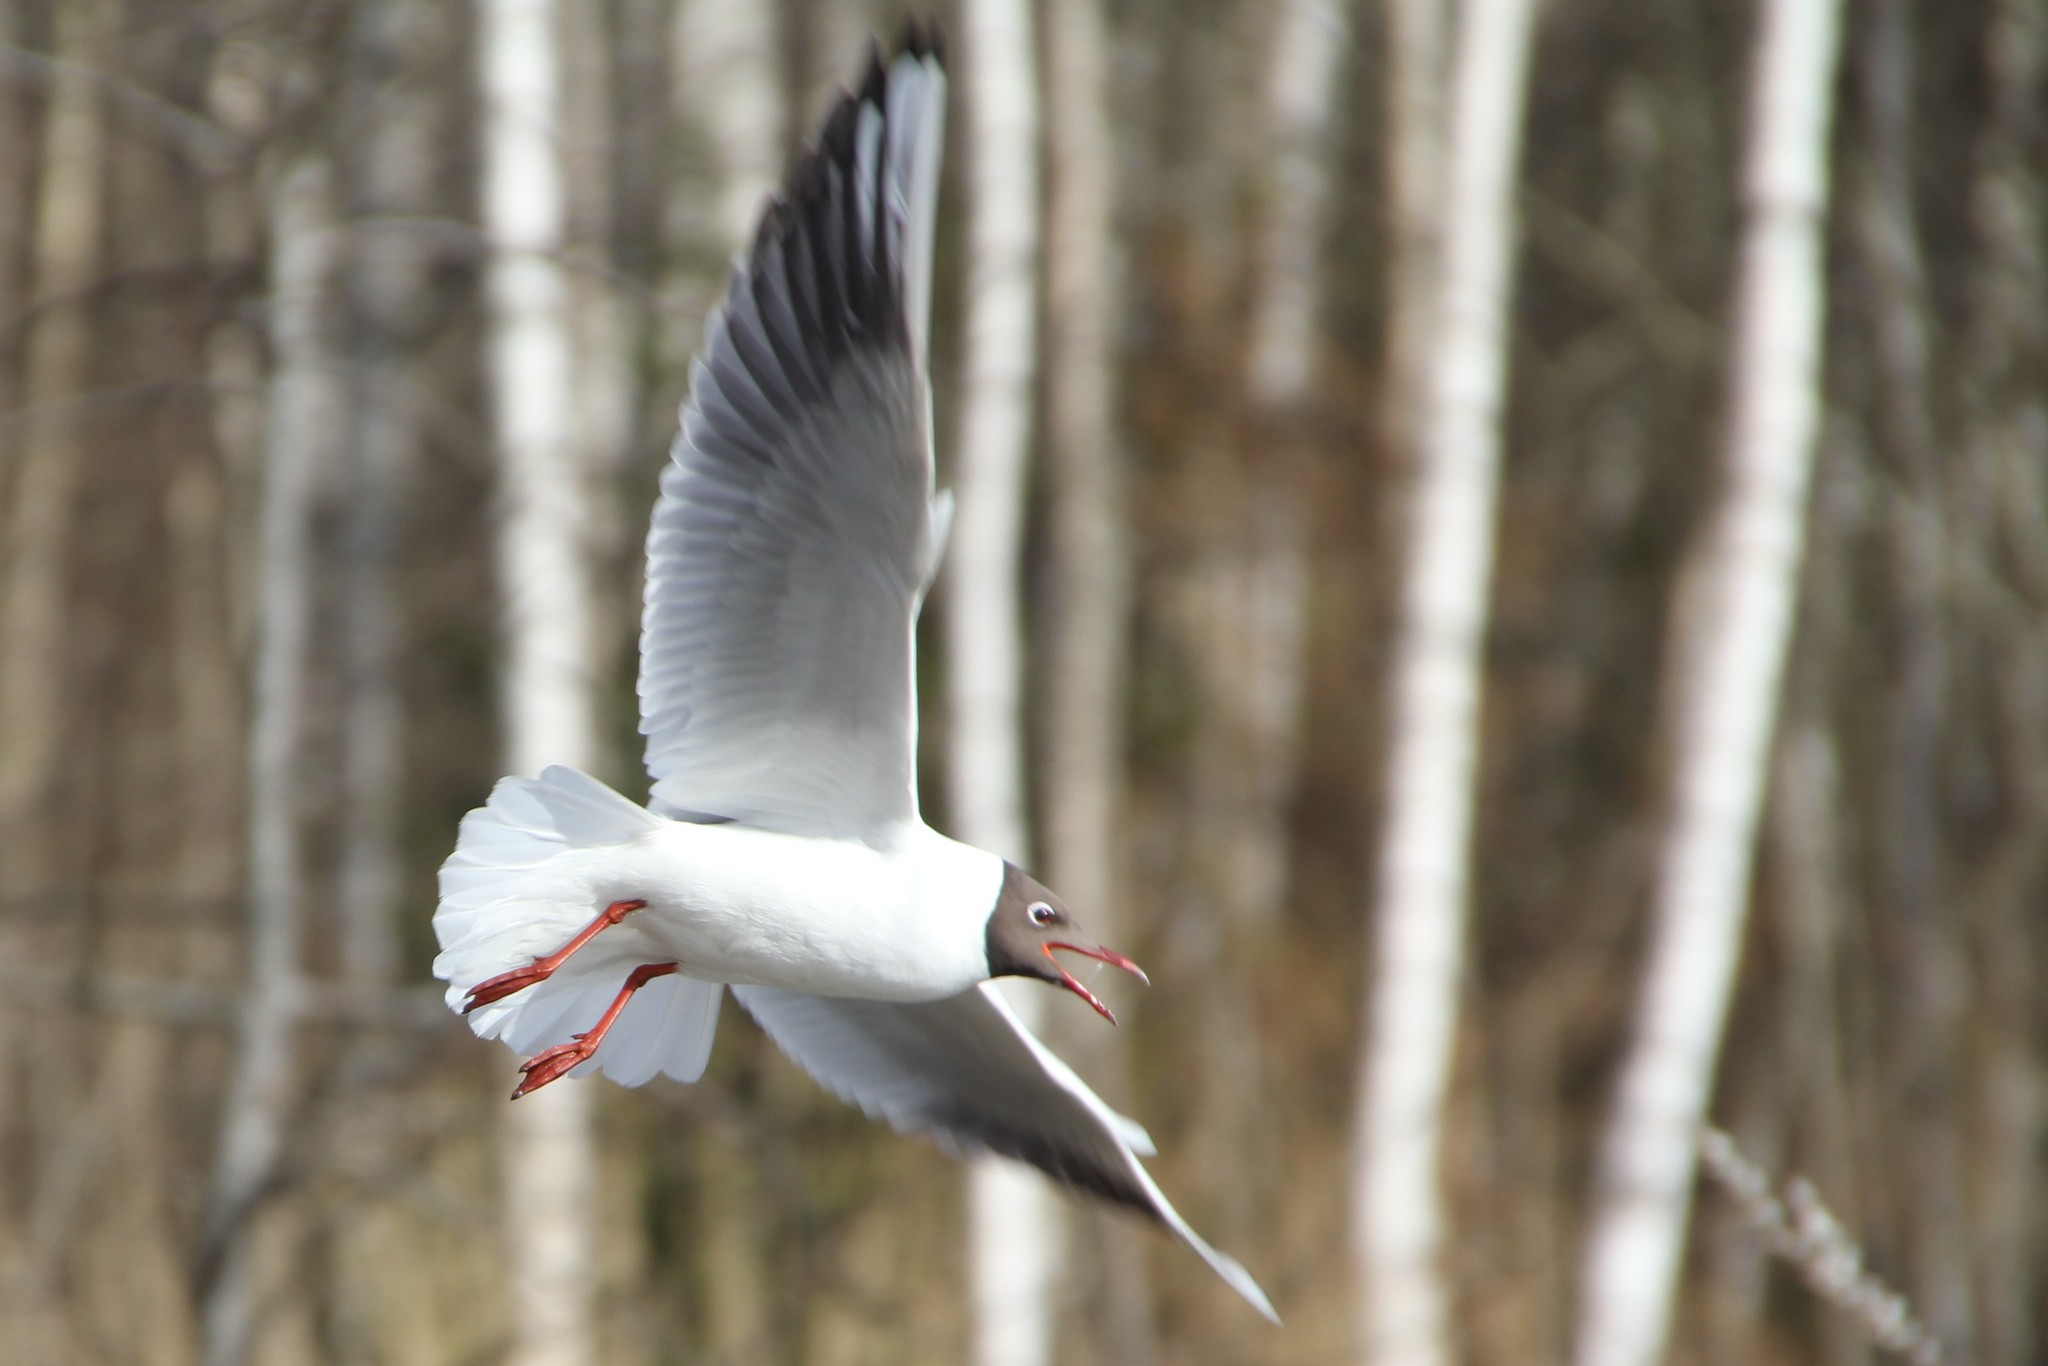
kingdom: Animalia
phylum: Chordata
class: Aves
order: Charadriiformes
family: Laridae
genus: Chroicocephalus
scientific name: Chroicocephalus ridibundus
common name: Black-headed gull
